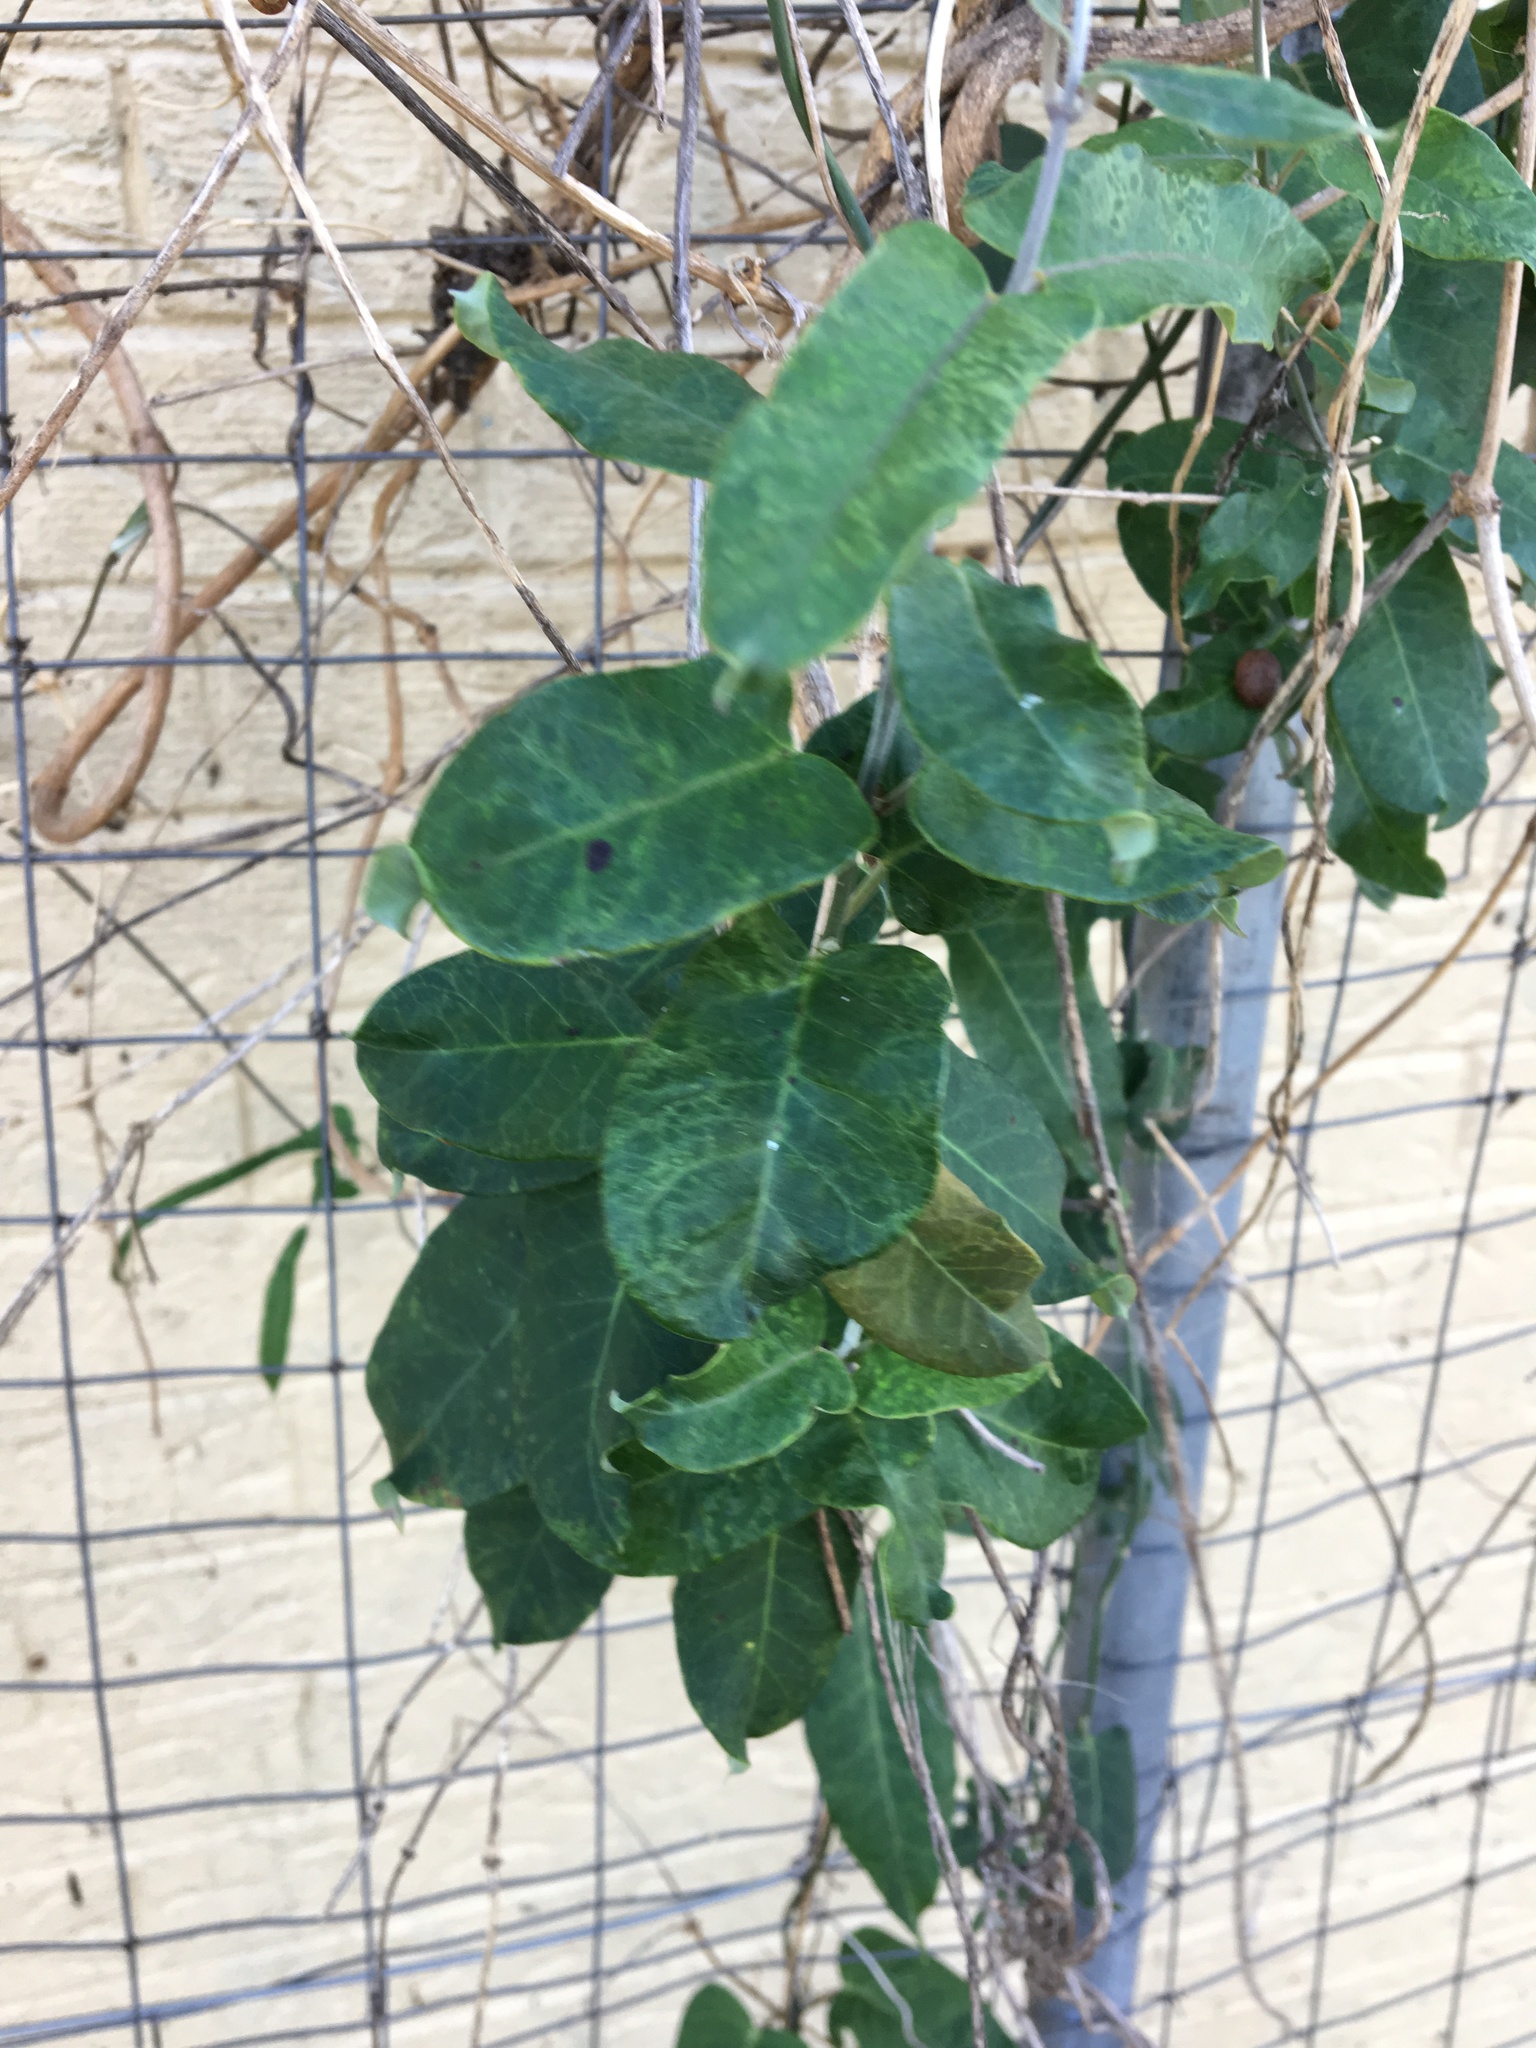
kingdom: Plantae
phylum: Tracheophyta
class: Magnoliopsida
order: Gentianales
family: Apocynaceae
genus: Araujia
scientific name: Araujia sericifera
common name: White bladderflower
